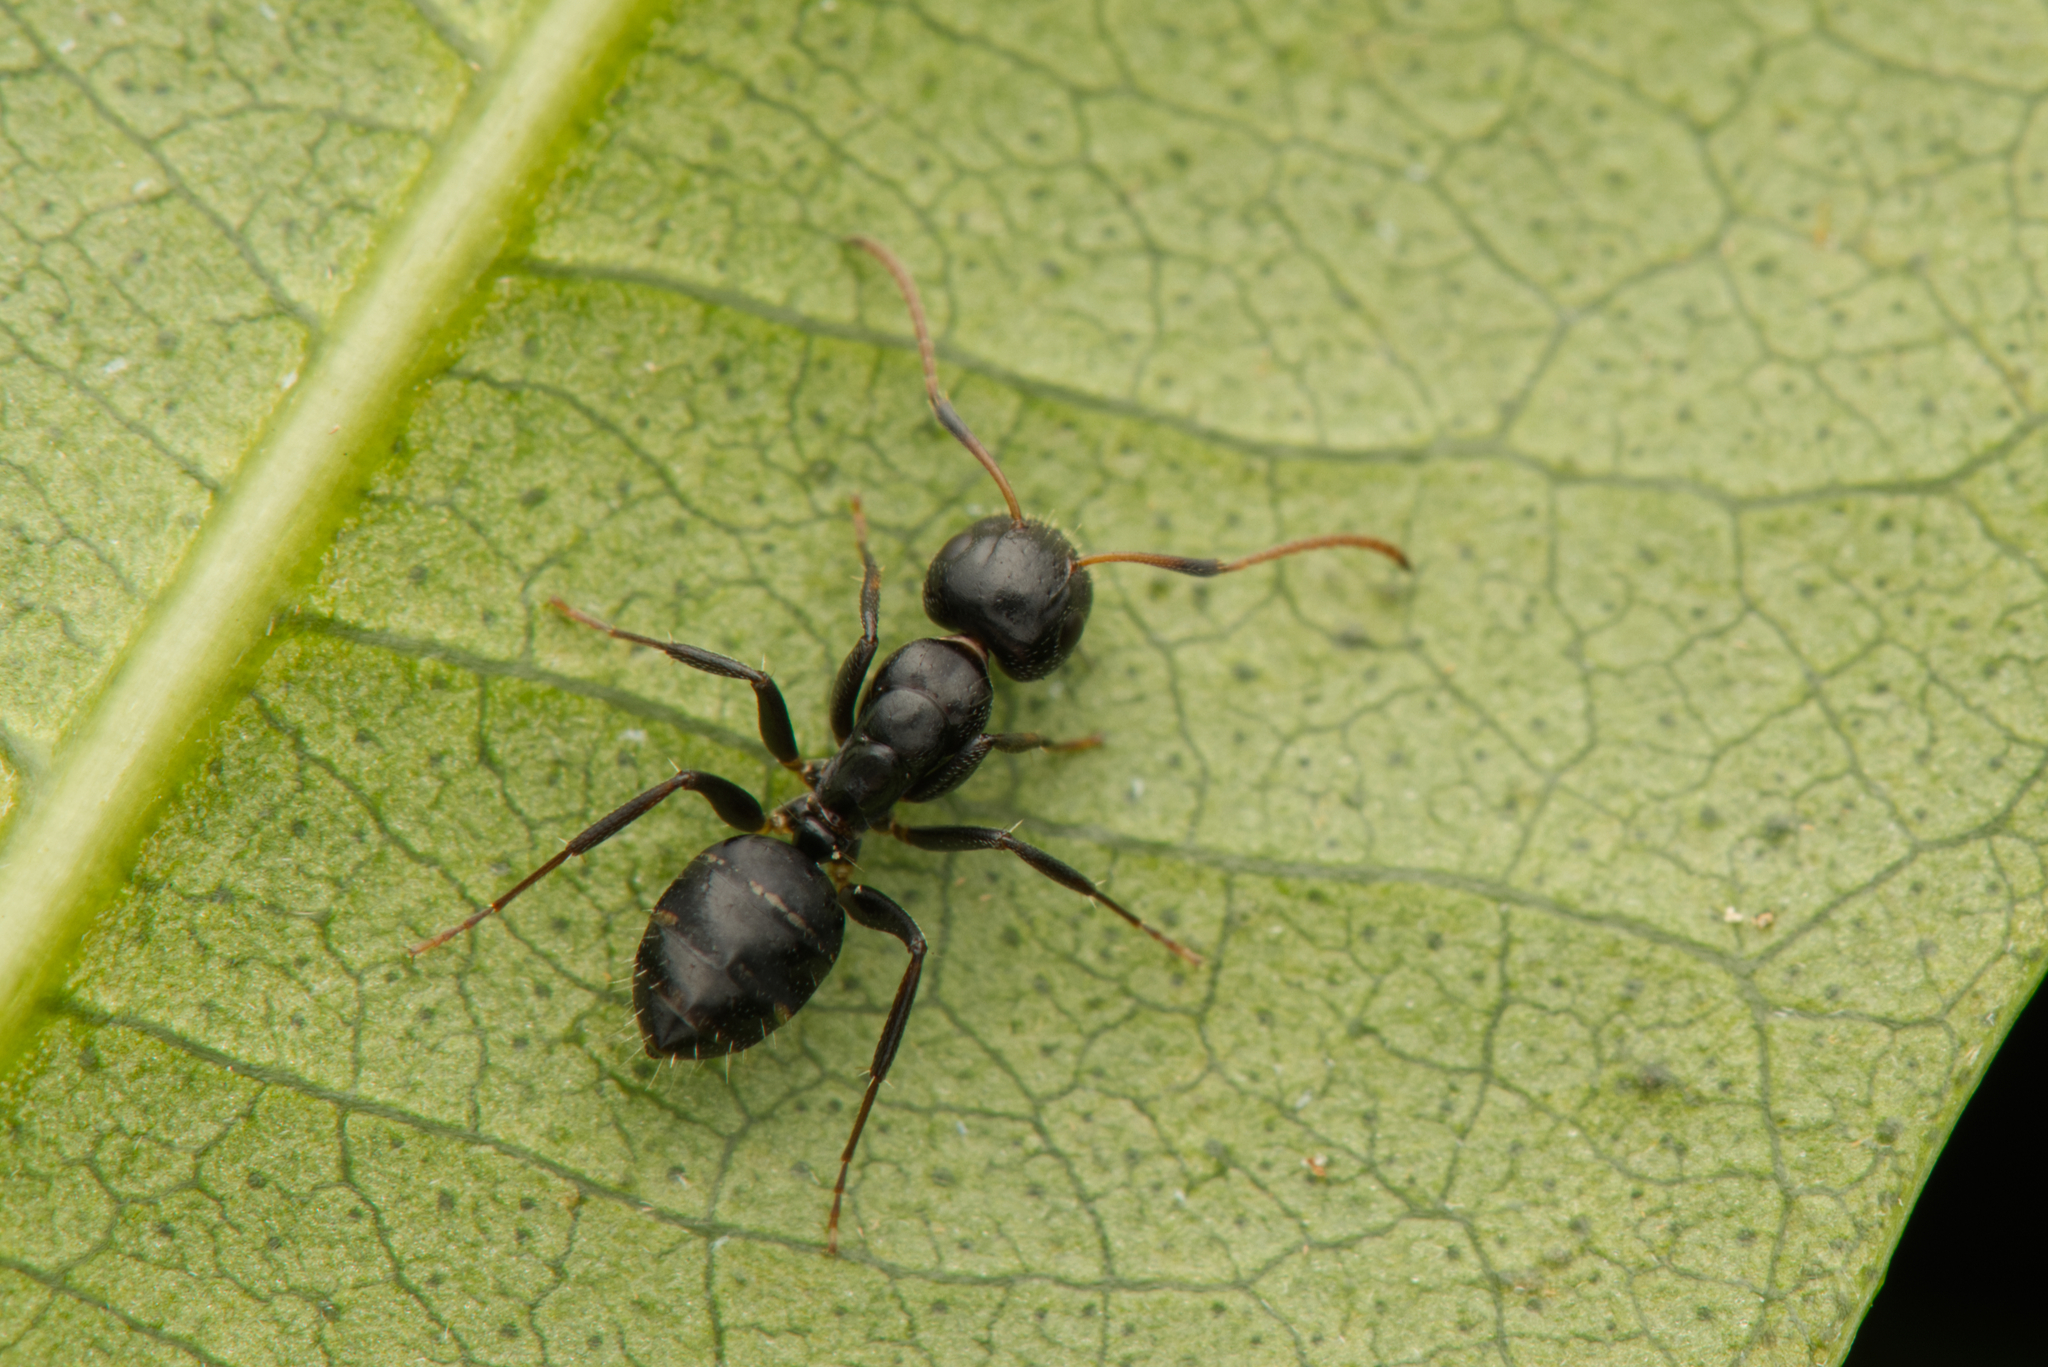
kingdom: Animalia
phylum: Arthropoda
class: Insecta
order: Hymenoptera
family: Formicidae
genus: Camponotus
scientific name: Camponotus mackayensis
